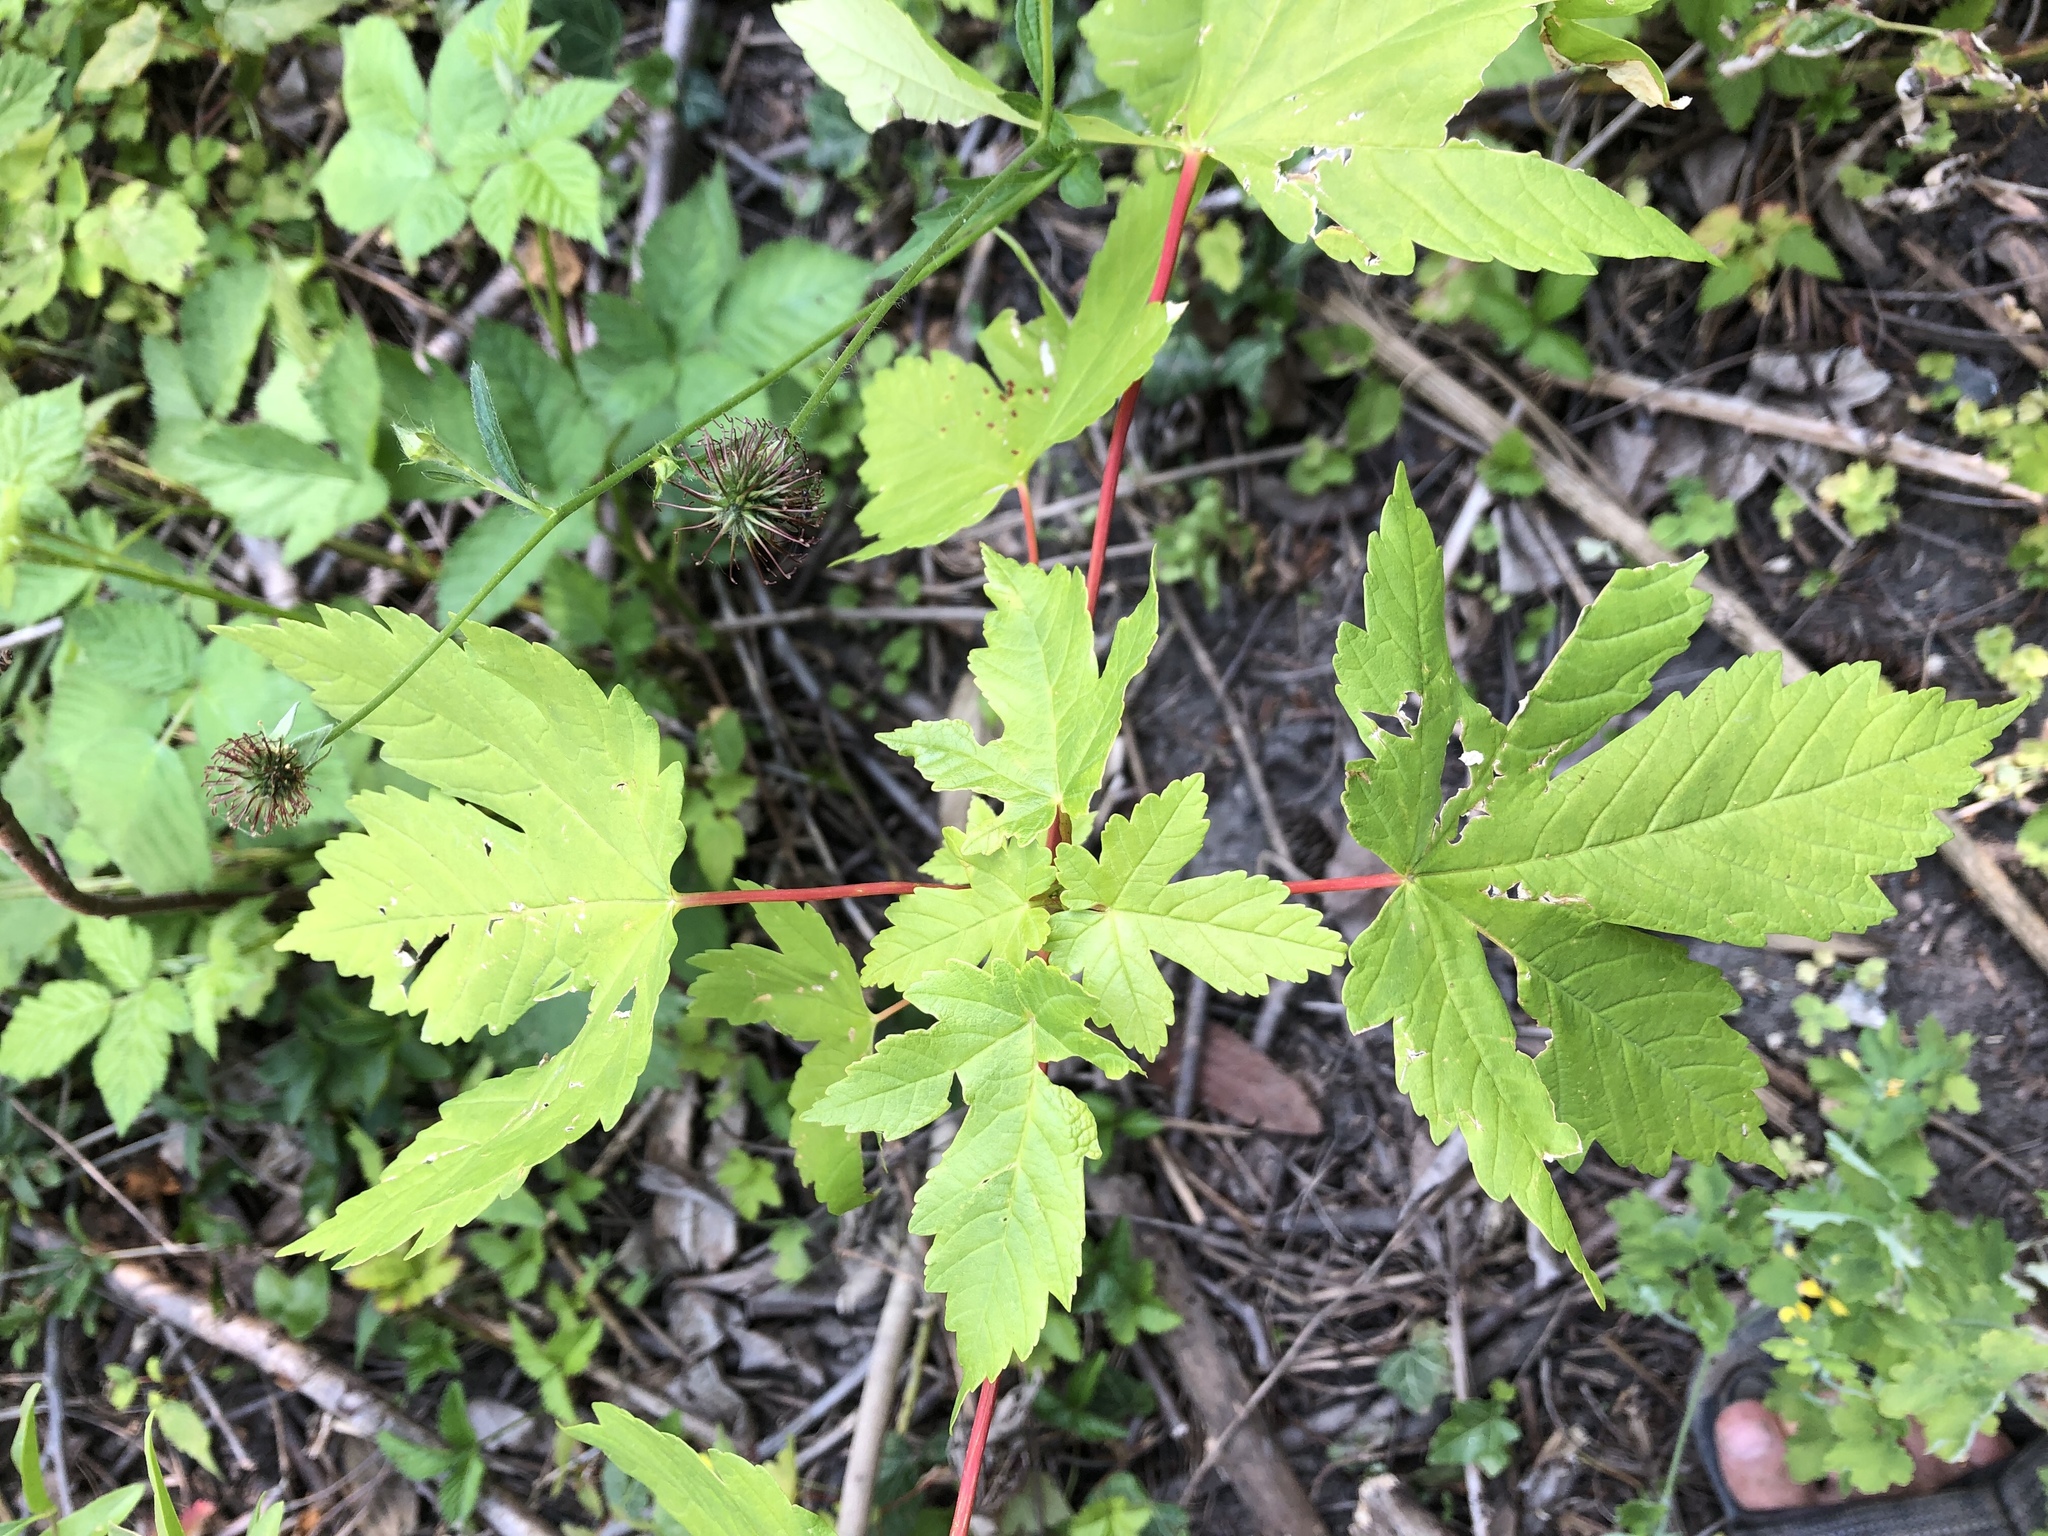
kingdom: Plantae
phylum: Tracheophyta
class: Magnoliopsida
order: Sapindales
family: Sapindaceae
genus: Acer
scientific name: Acer pseudoplatanus
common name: Sycamore
